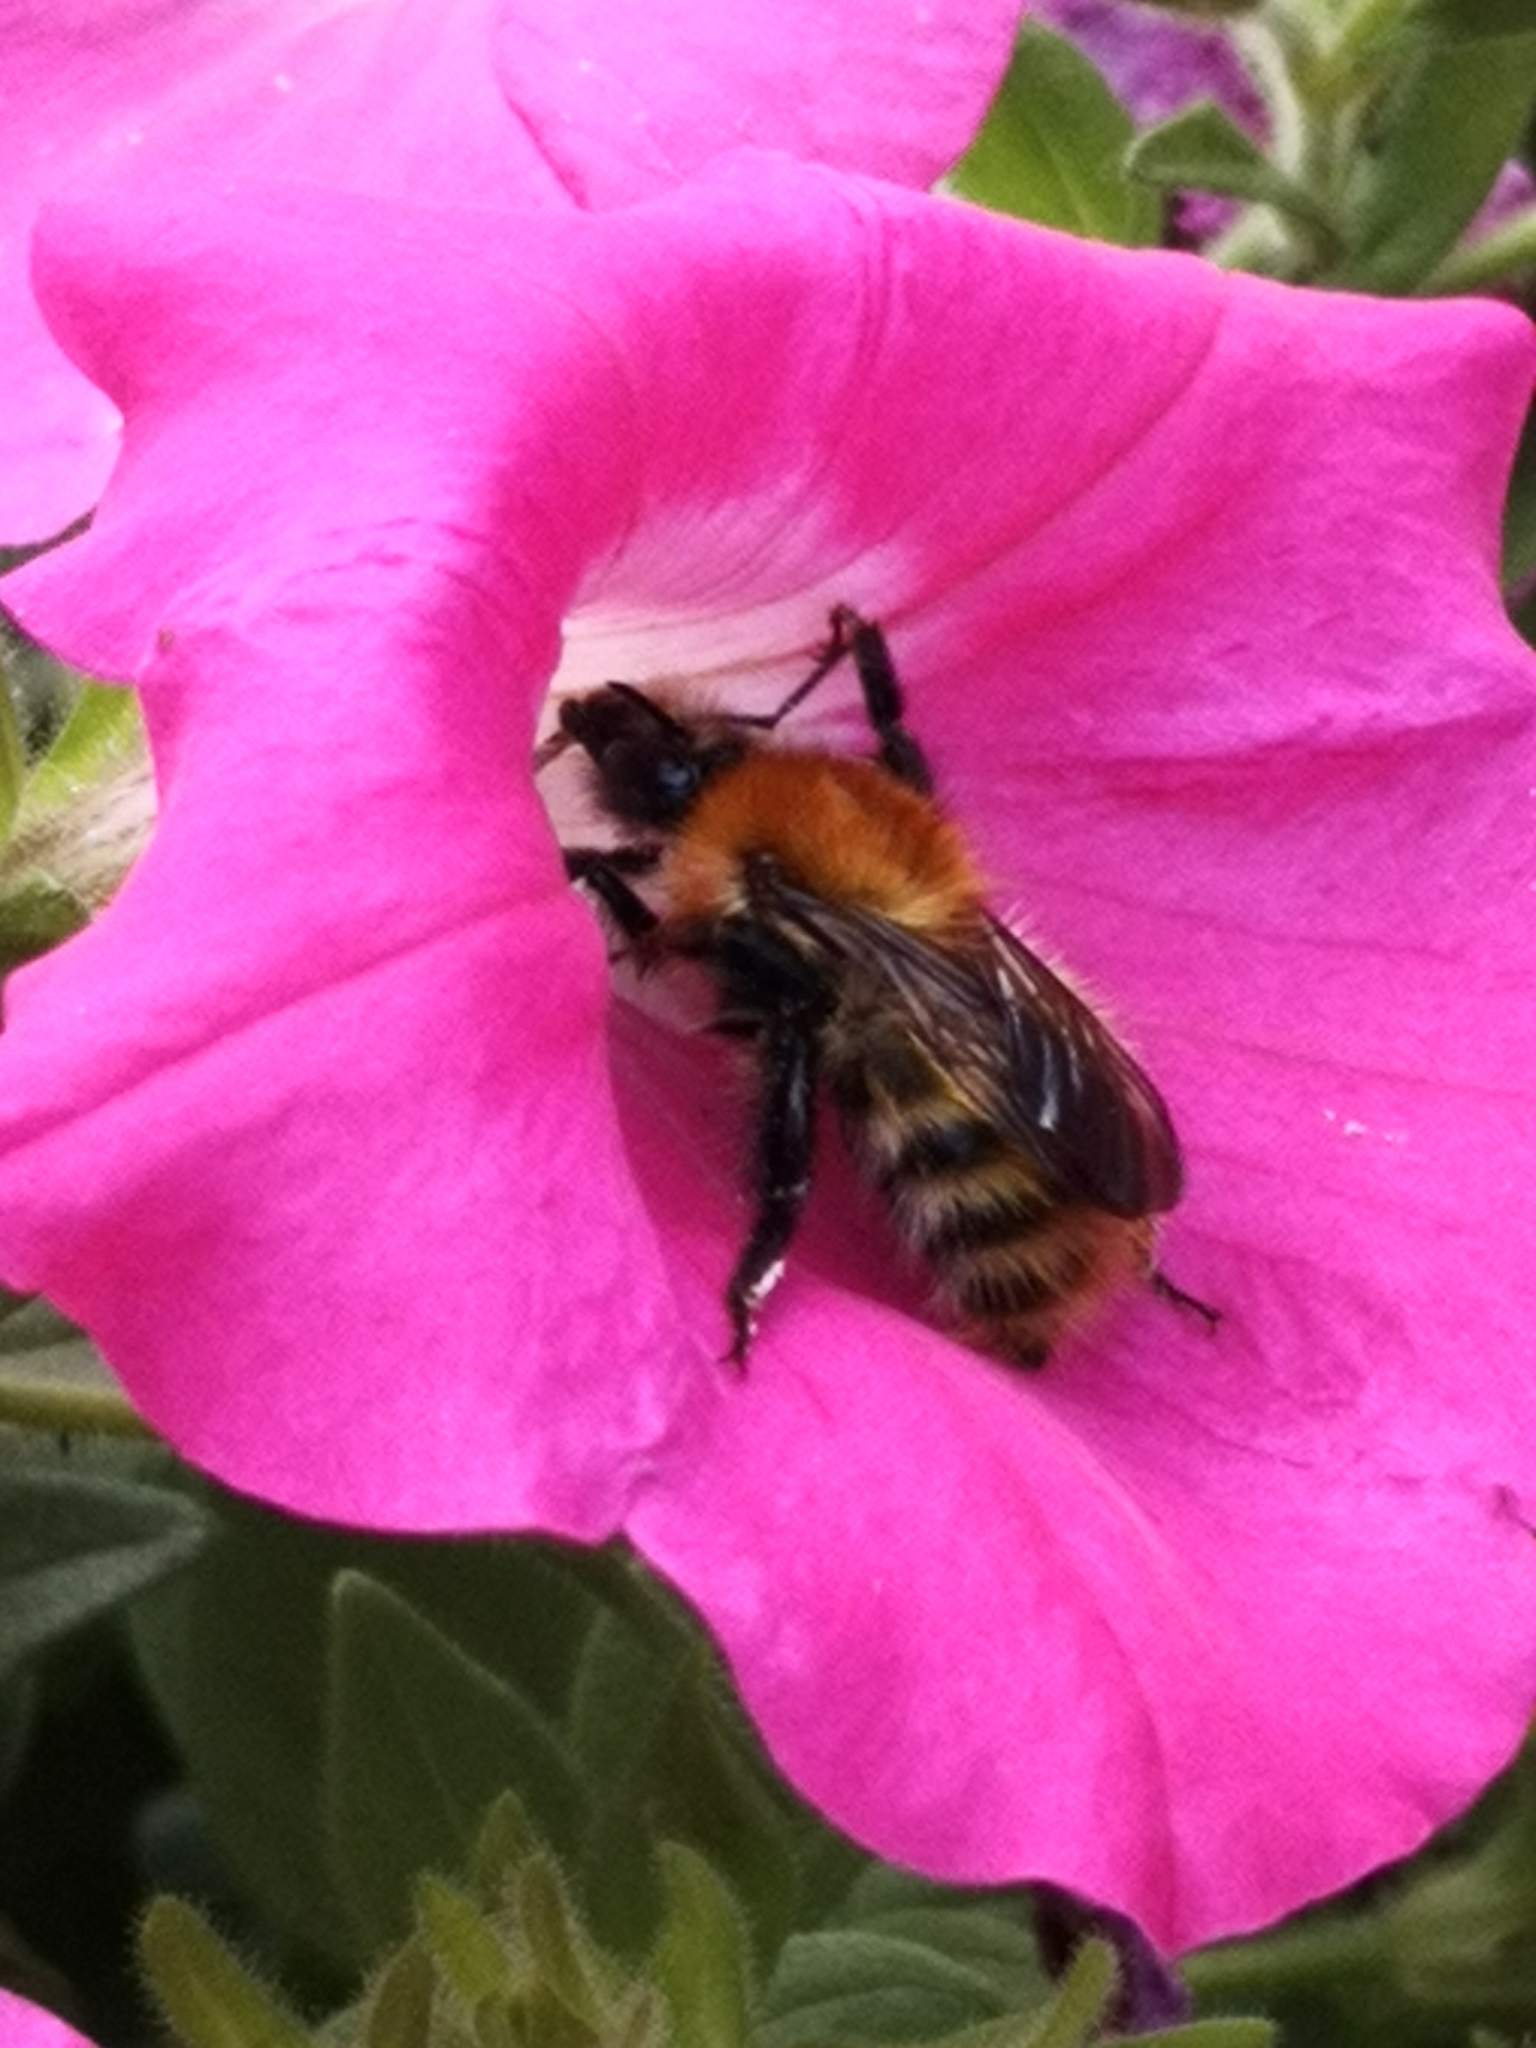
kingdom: Animalia
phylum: Arthropoda
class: Insecta
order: Hymenoptera
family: Apidae
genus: Bombus
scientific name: Bombus pascuorum
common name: Common carder bee
